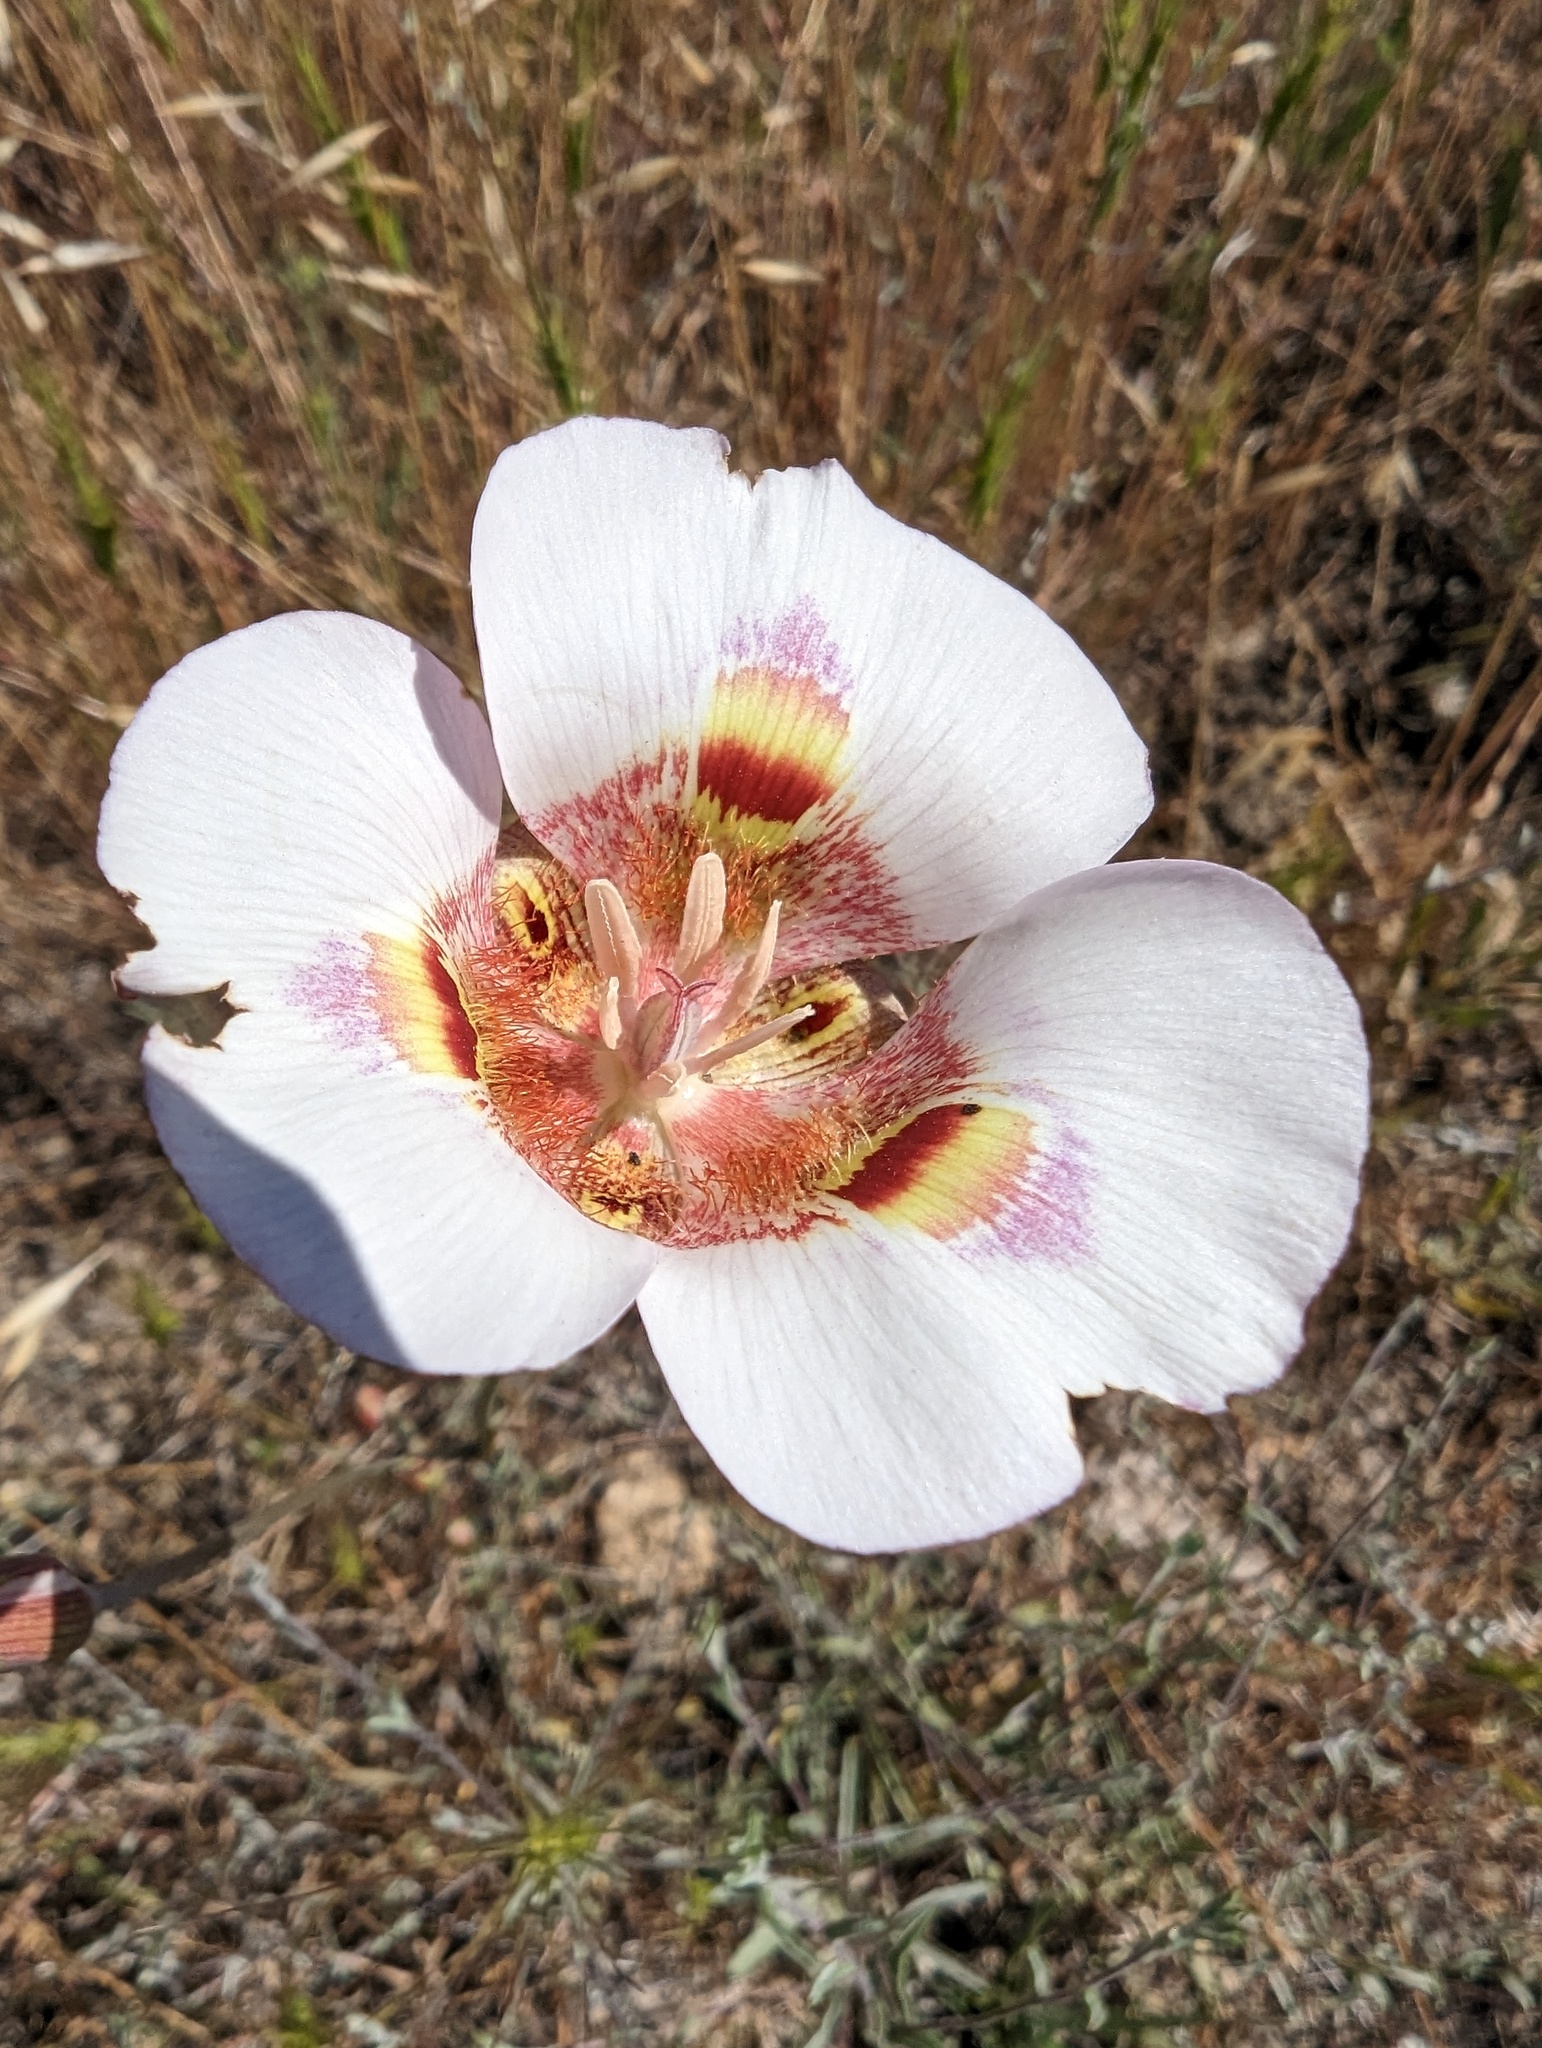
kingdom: Plantae
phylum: Tracheophyta
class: Liliopsida
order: Liliales
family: Liliaceae
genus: Calochortus
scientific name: Calochortus argillosus
